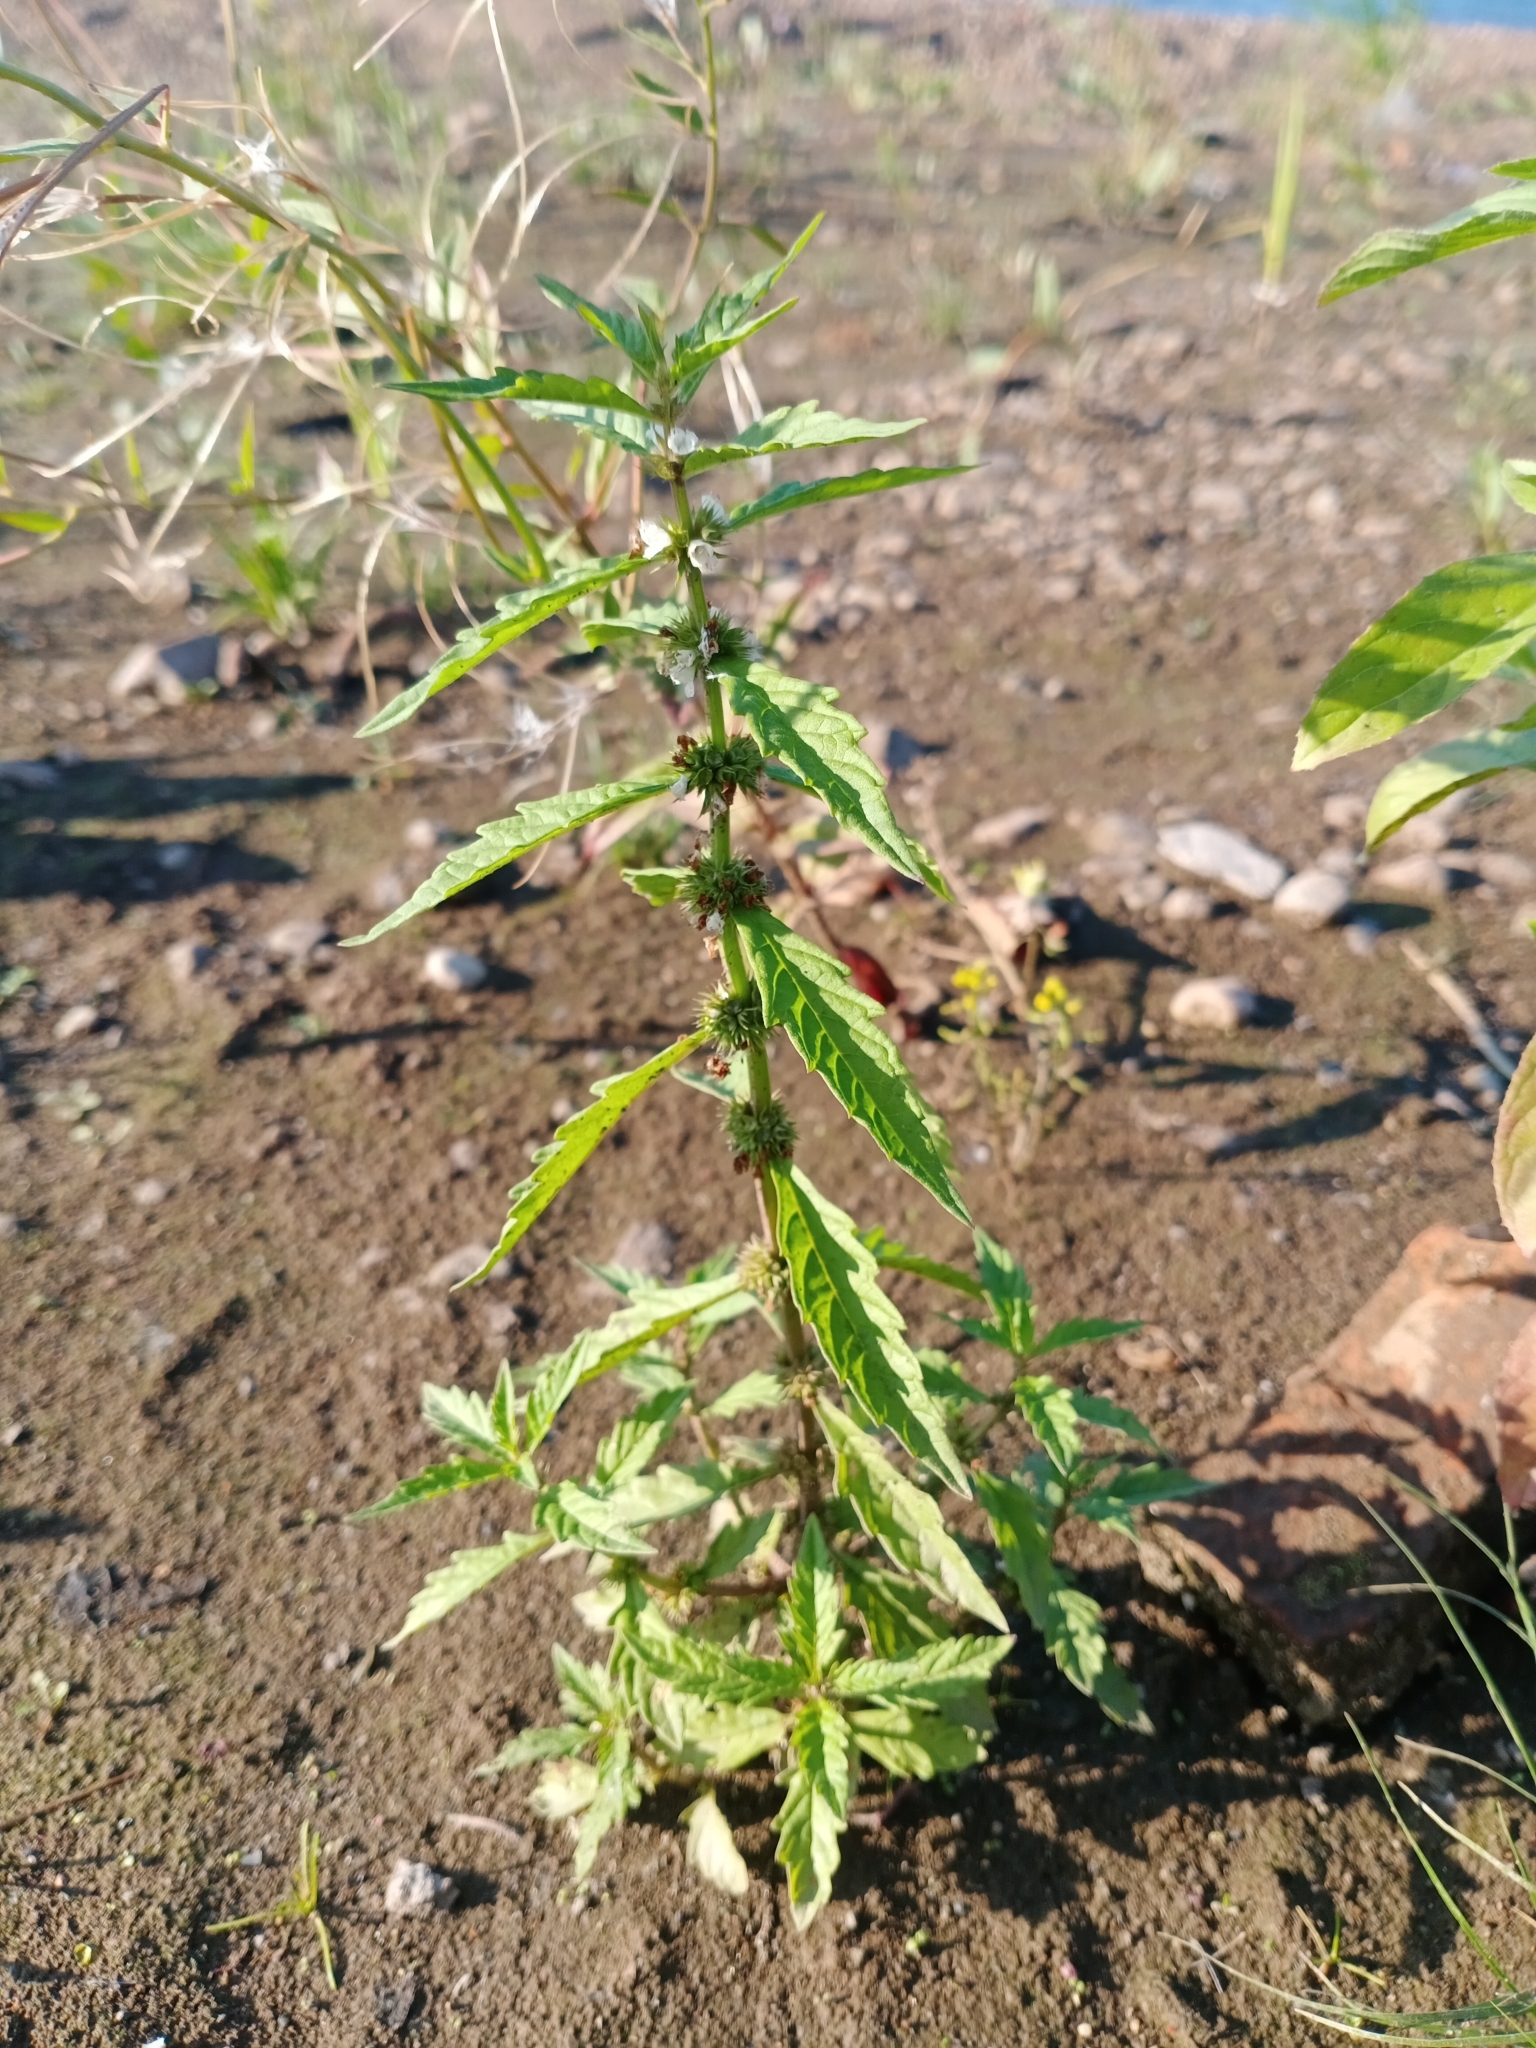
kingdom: Plantae
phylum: Tracheophyta
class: Magnoliopsida
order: Lamiales
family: Lamiaceae
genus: Lycopus
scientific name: Lycopus europaeus
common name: European bugleweed
